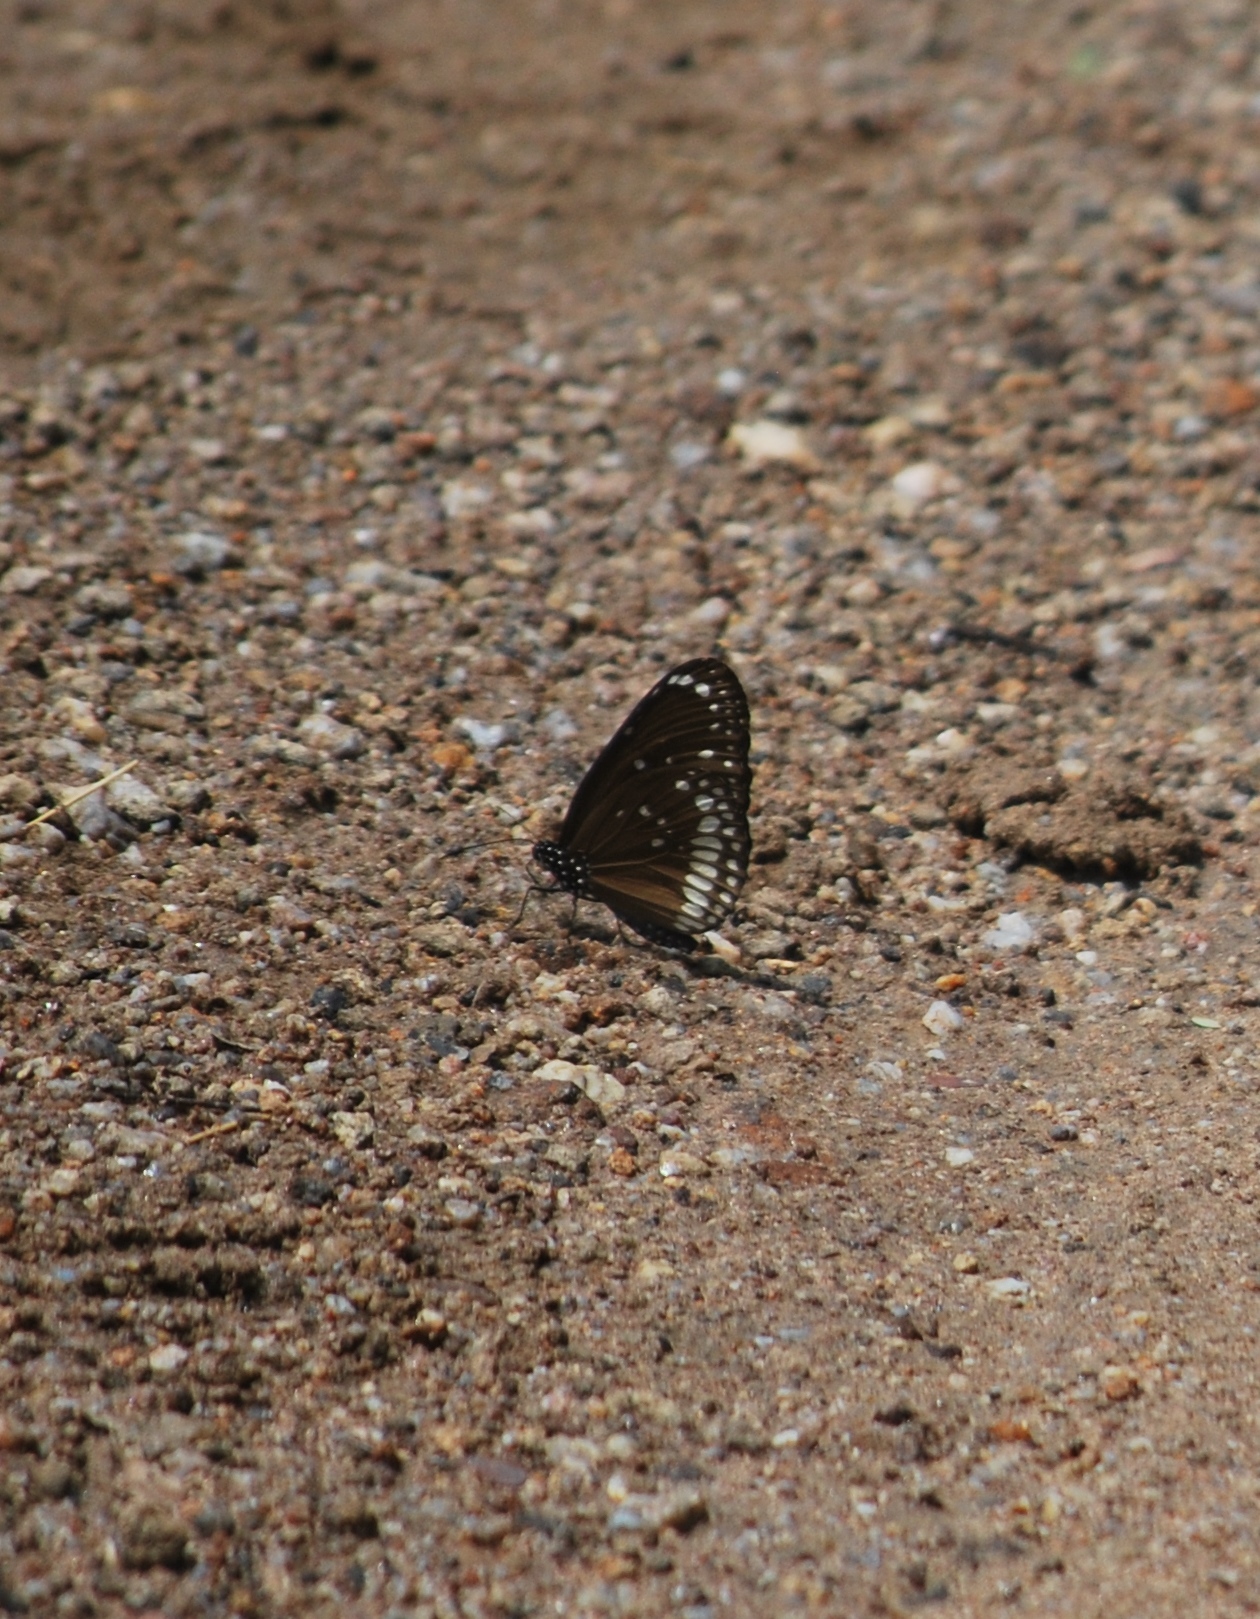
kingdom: Animalia
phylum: Arthropoda
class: Insecta
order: Lepidoptera
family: Nymphalidae
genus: Euploea
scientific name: Euploea core
